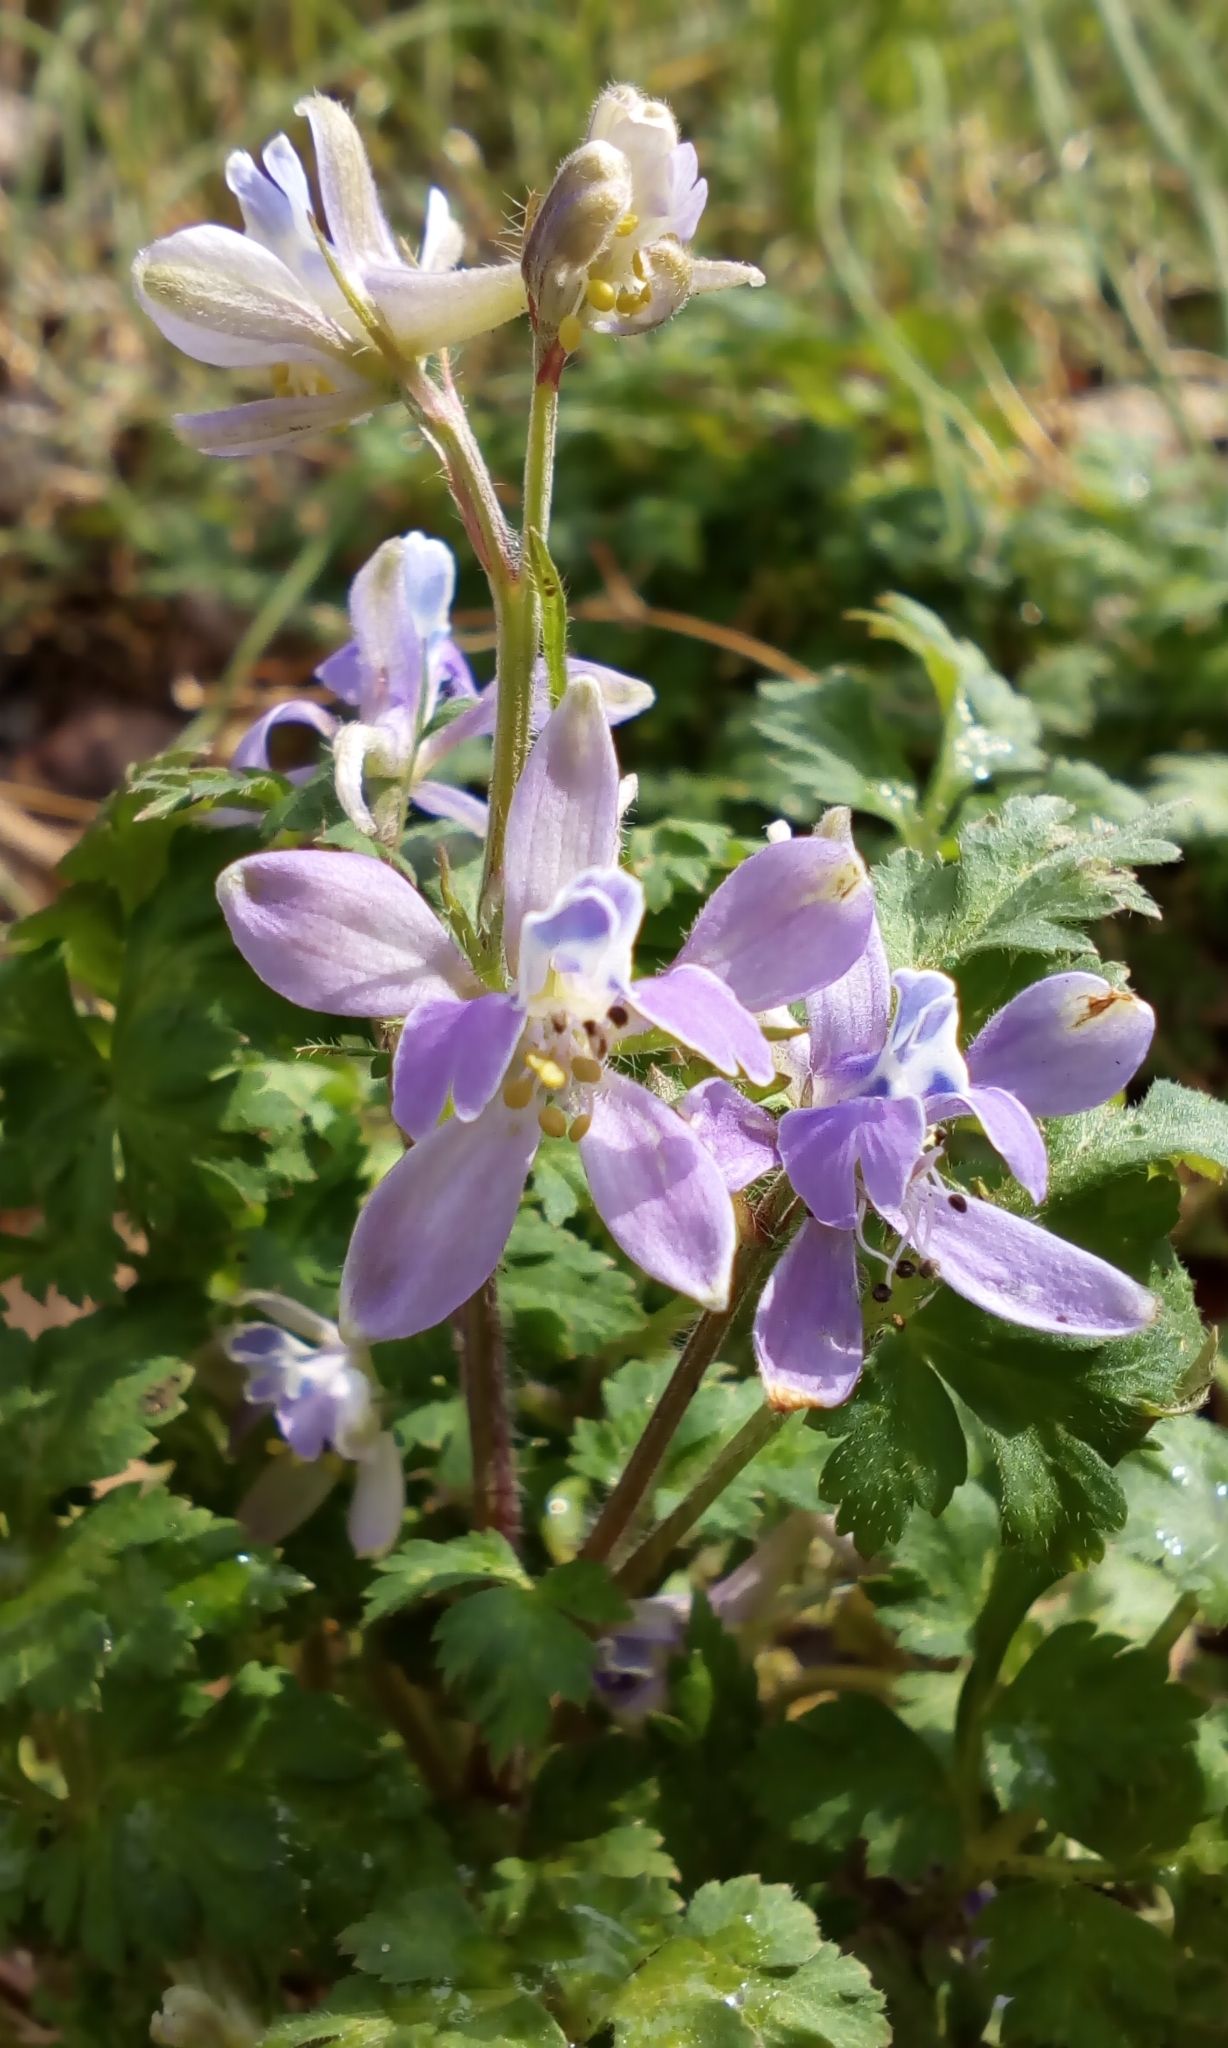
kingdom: Plantae
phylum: Tracheophyta
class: Magnoliopsida
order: Ranunculales
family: Ranunculaceae
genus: Delphinium
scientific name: Delphinium anthriscifolium
